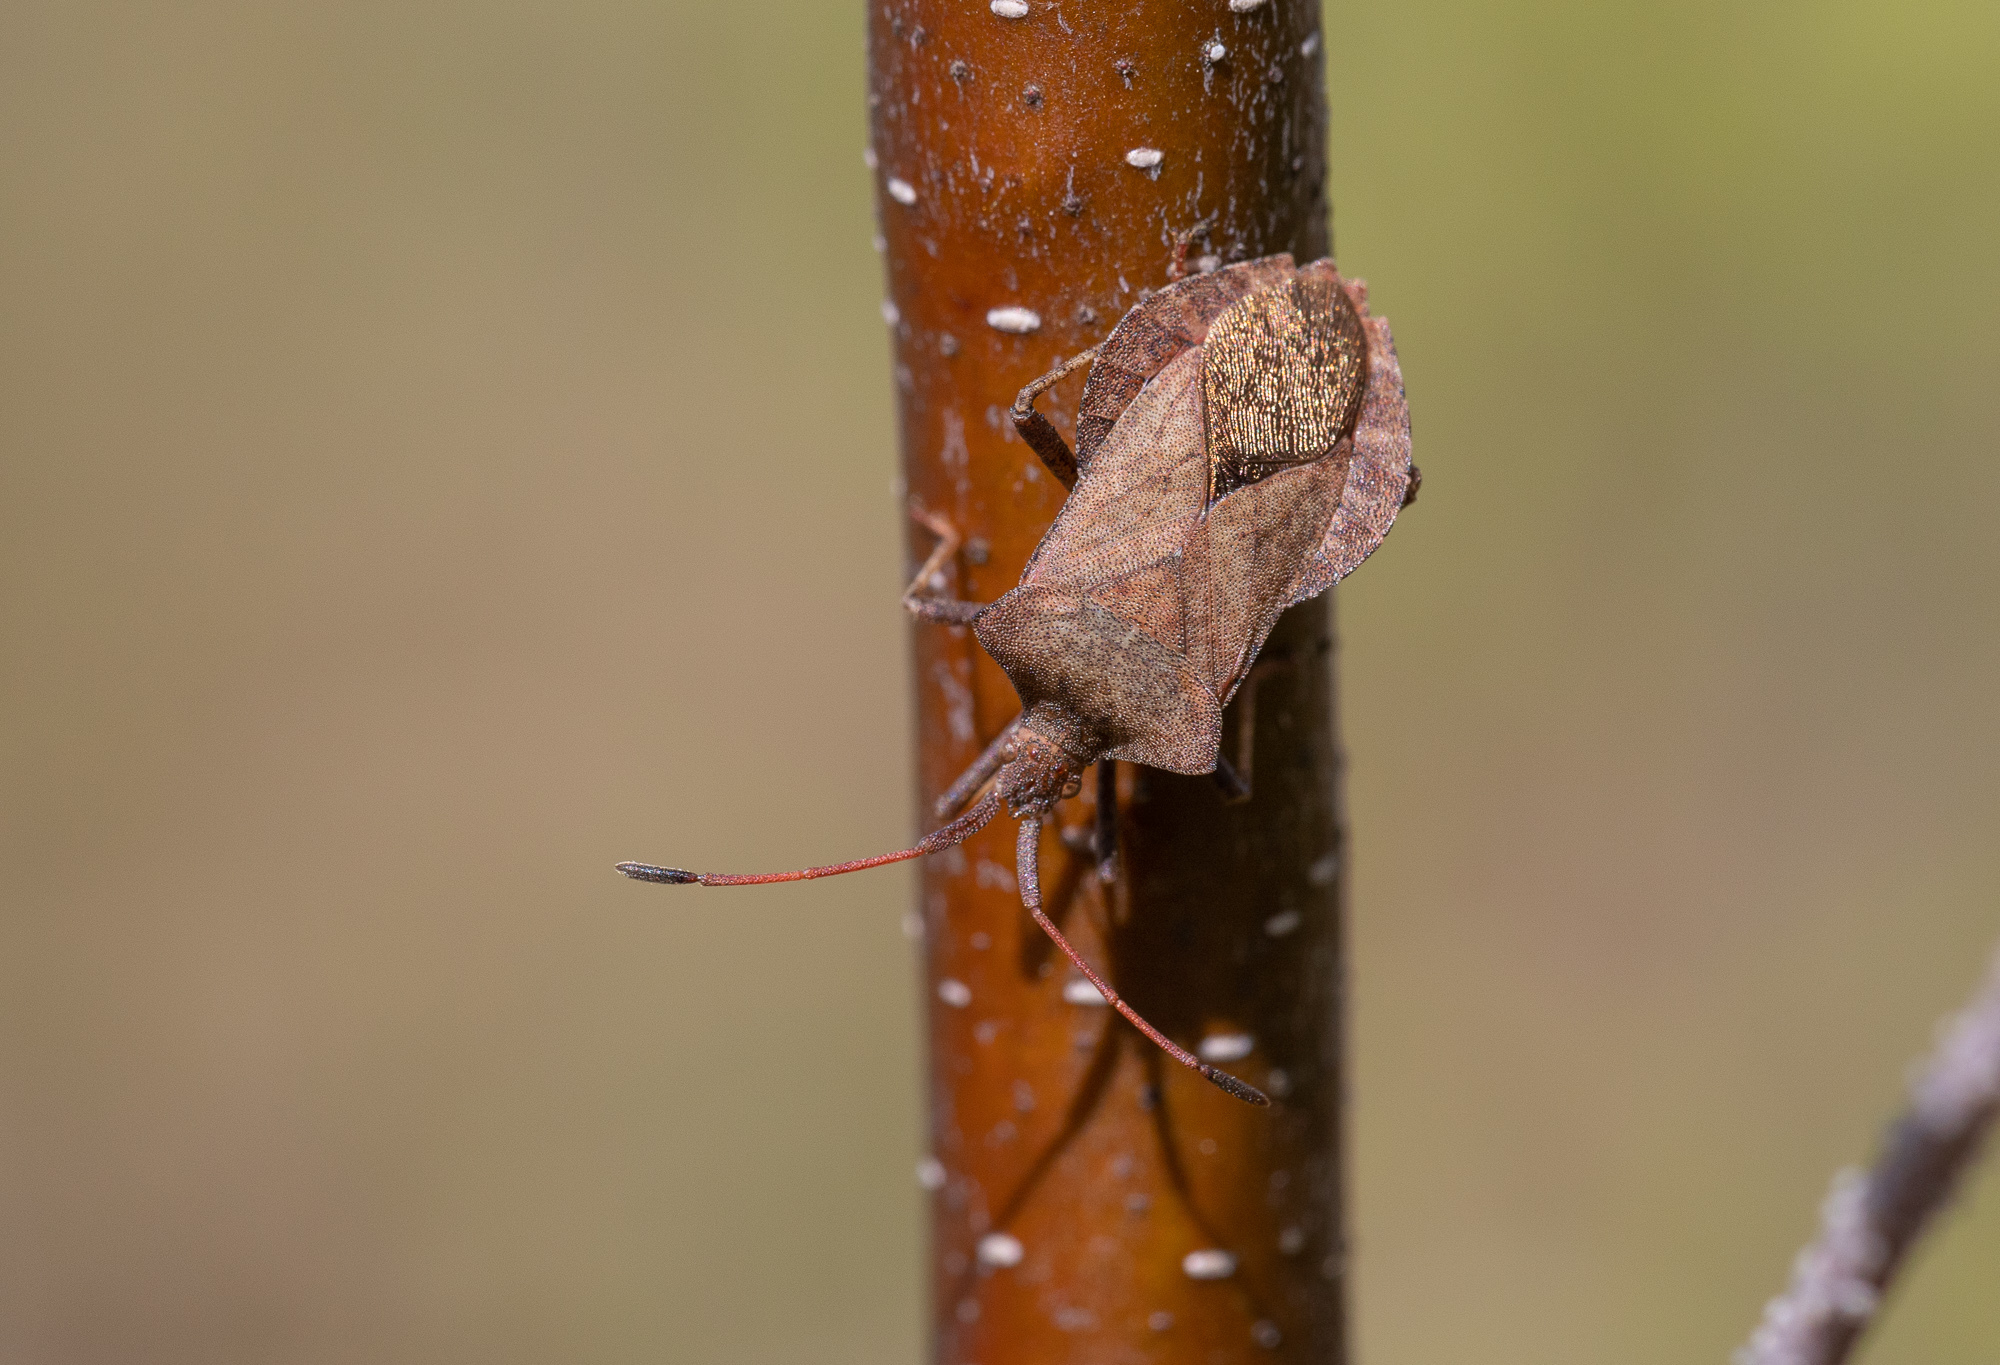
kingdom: Animalia
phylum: Arthropoda
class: Insecta
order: Hemiptera
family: Coreidae
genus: Coreus
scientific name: Coreus marginatus
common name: Dock bug
